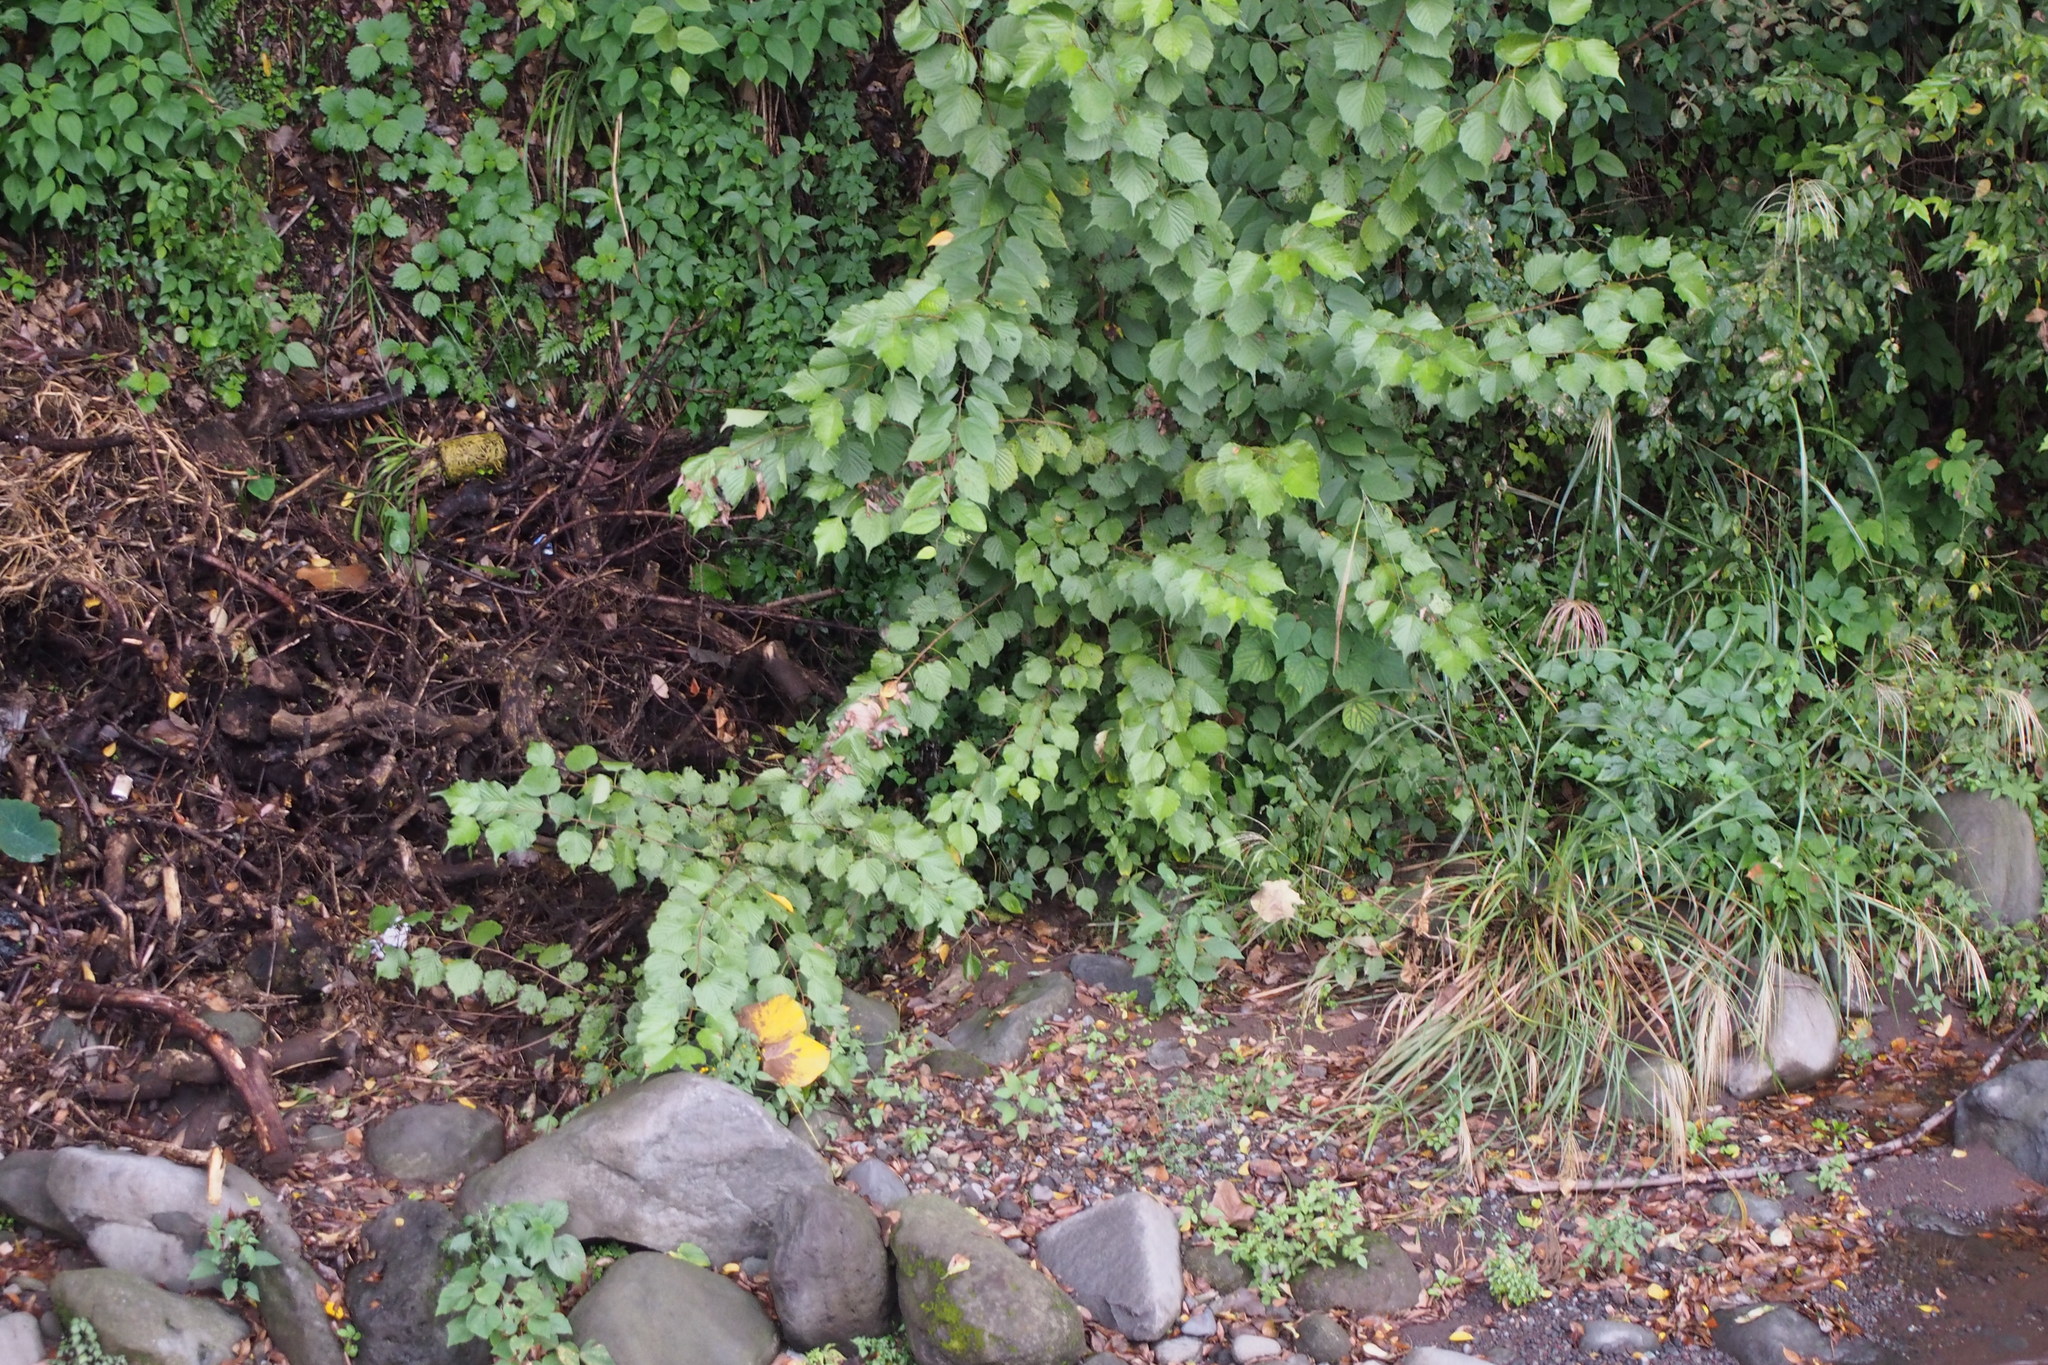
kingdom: Plantae
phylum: Tracheophyta
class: Magnoliopsida
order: Ranunculales
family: Eupteleaceae
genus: Euptelea
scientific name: Euptelea polyandra
